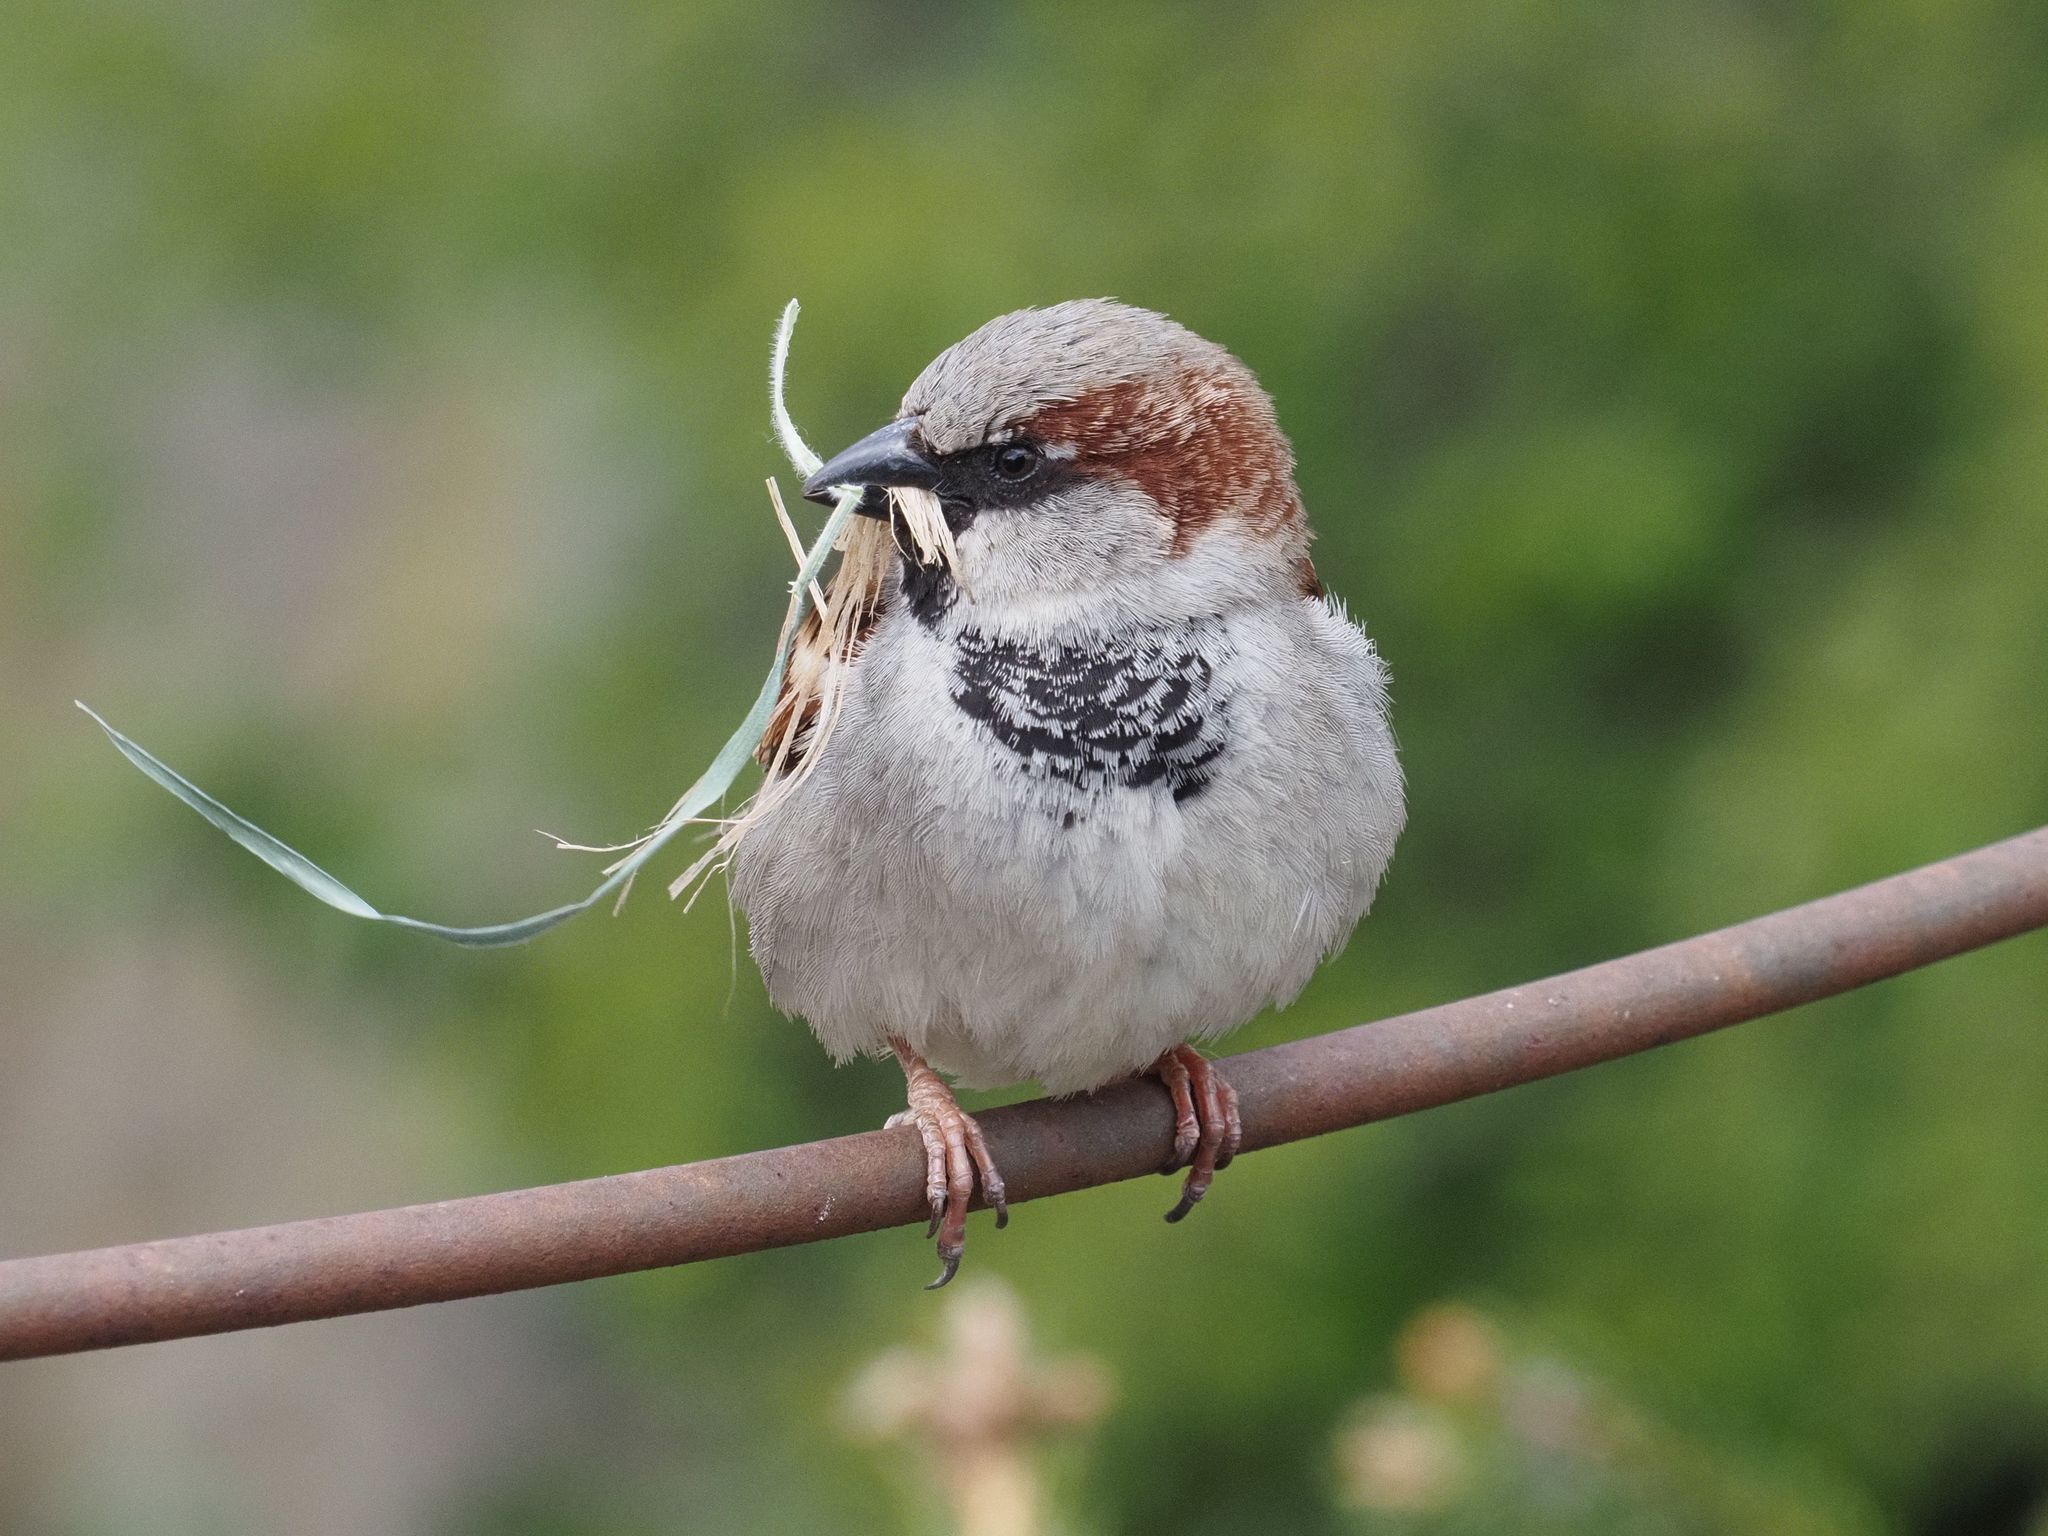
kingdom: Animalia
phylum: Chordata
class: Aves
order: Passeriformes
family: Passeridae
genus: Passer
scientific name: Passer domesticus
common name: House sparrow
